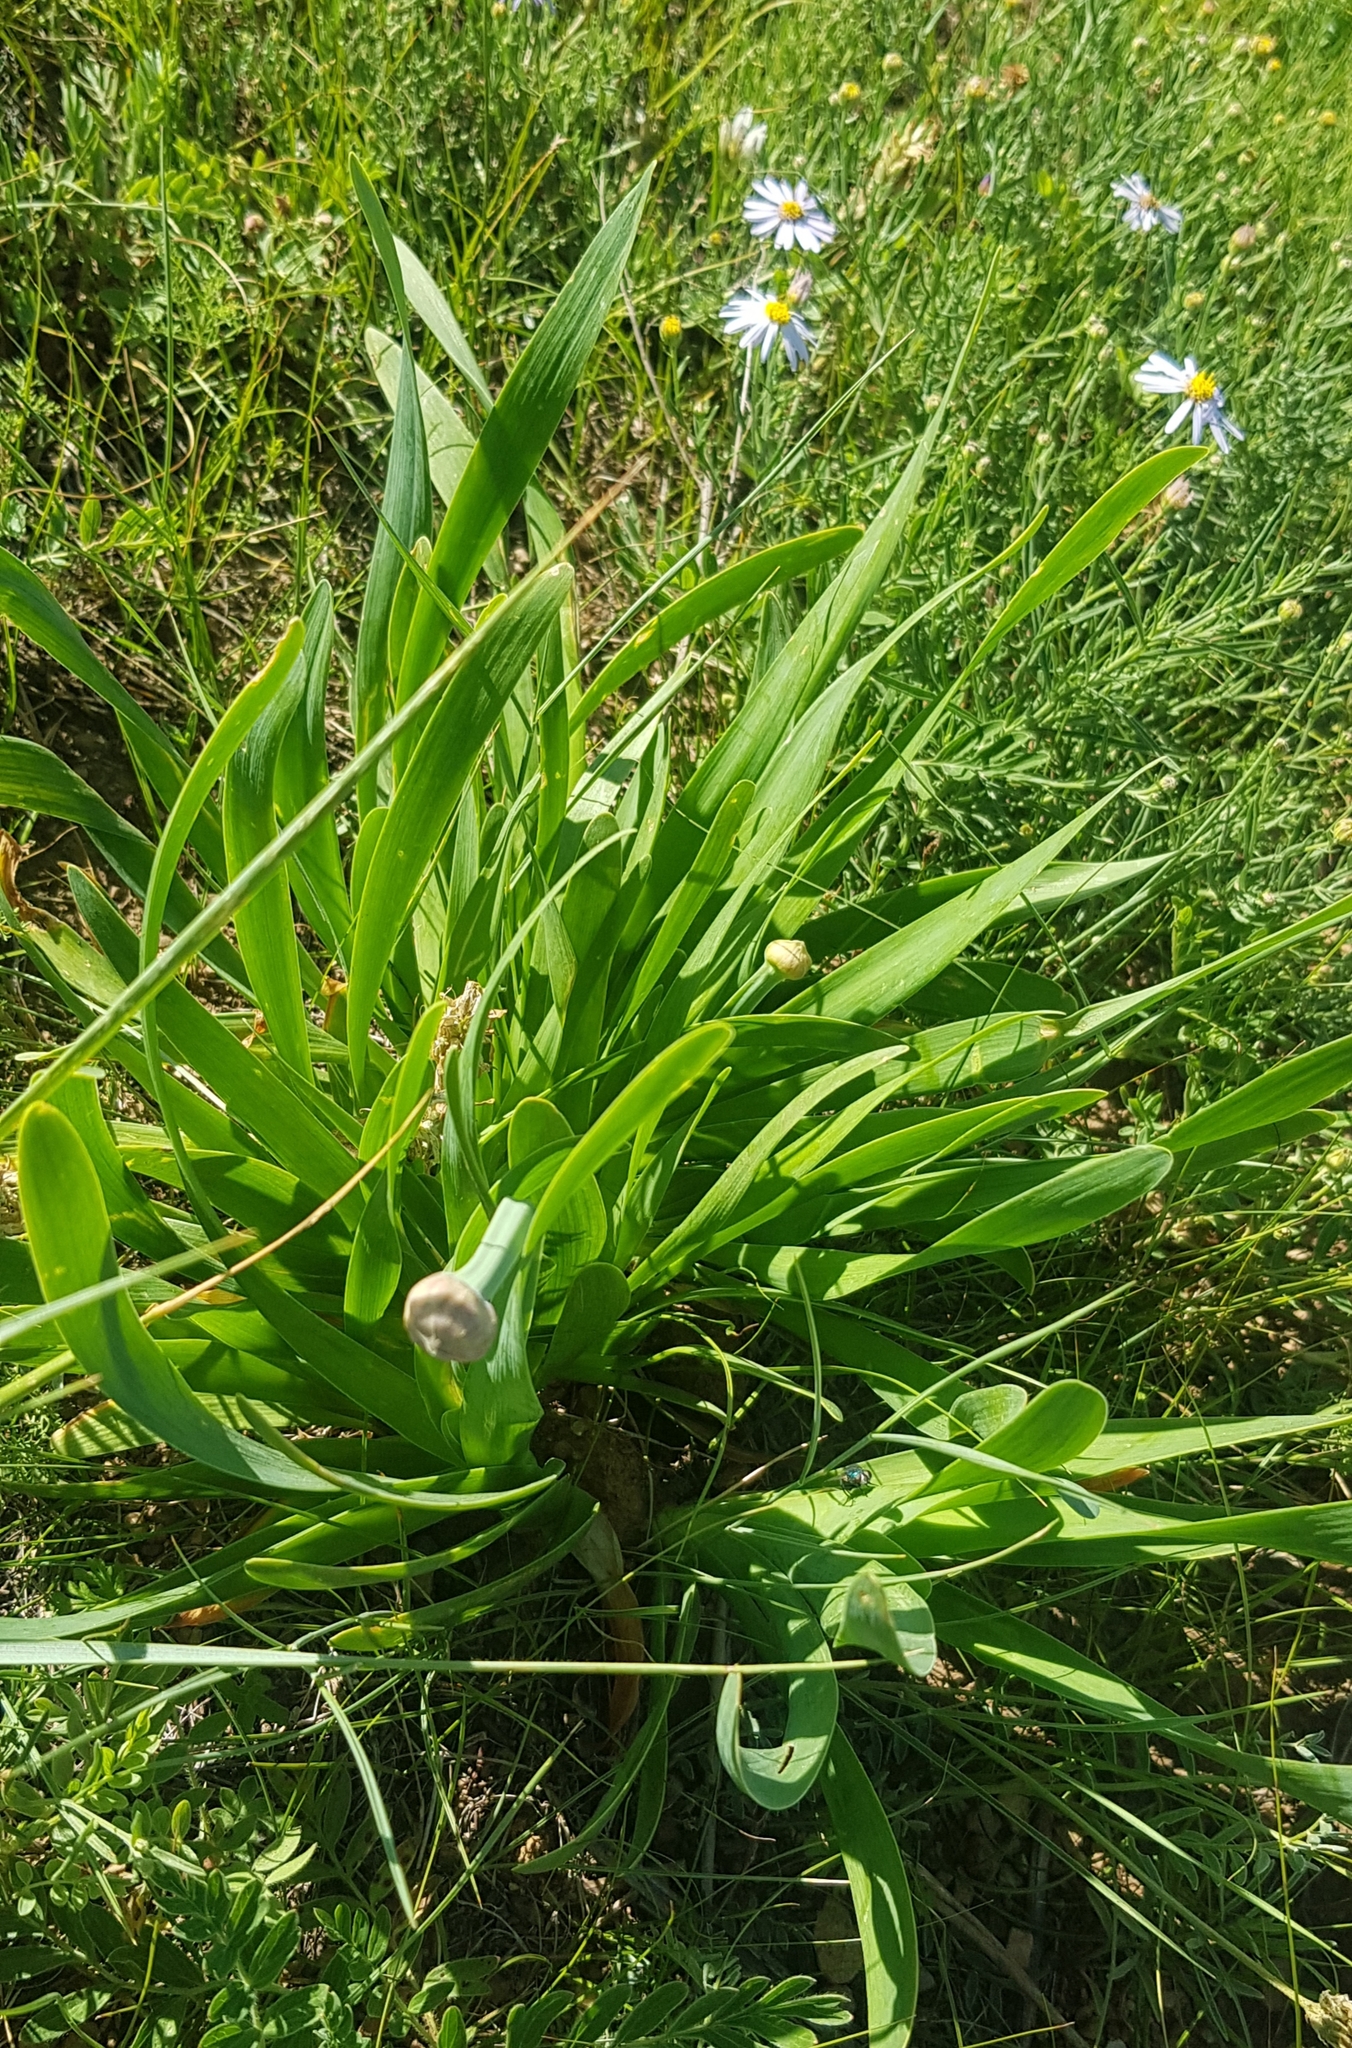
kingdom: Plantae
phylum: Tracheophyta
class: Liliopsida
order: Asparagales
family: Amaryllidaceae
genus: Allium
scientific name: Allium senescens
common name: German garlic
